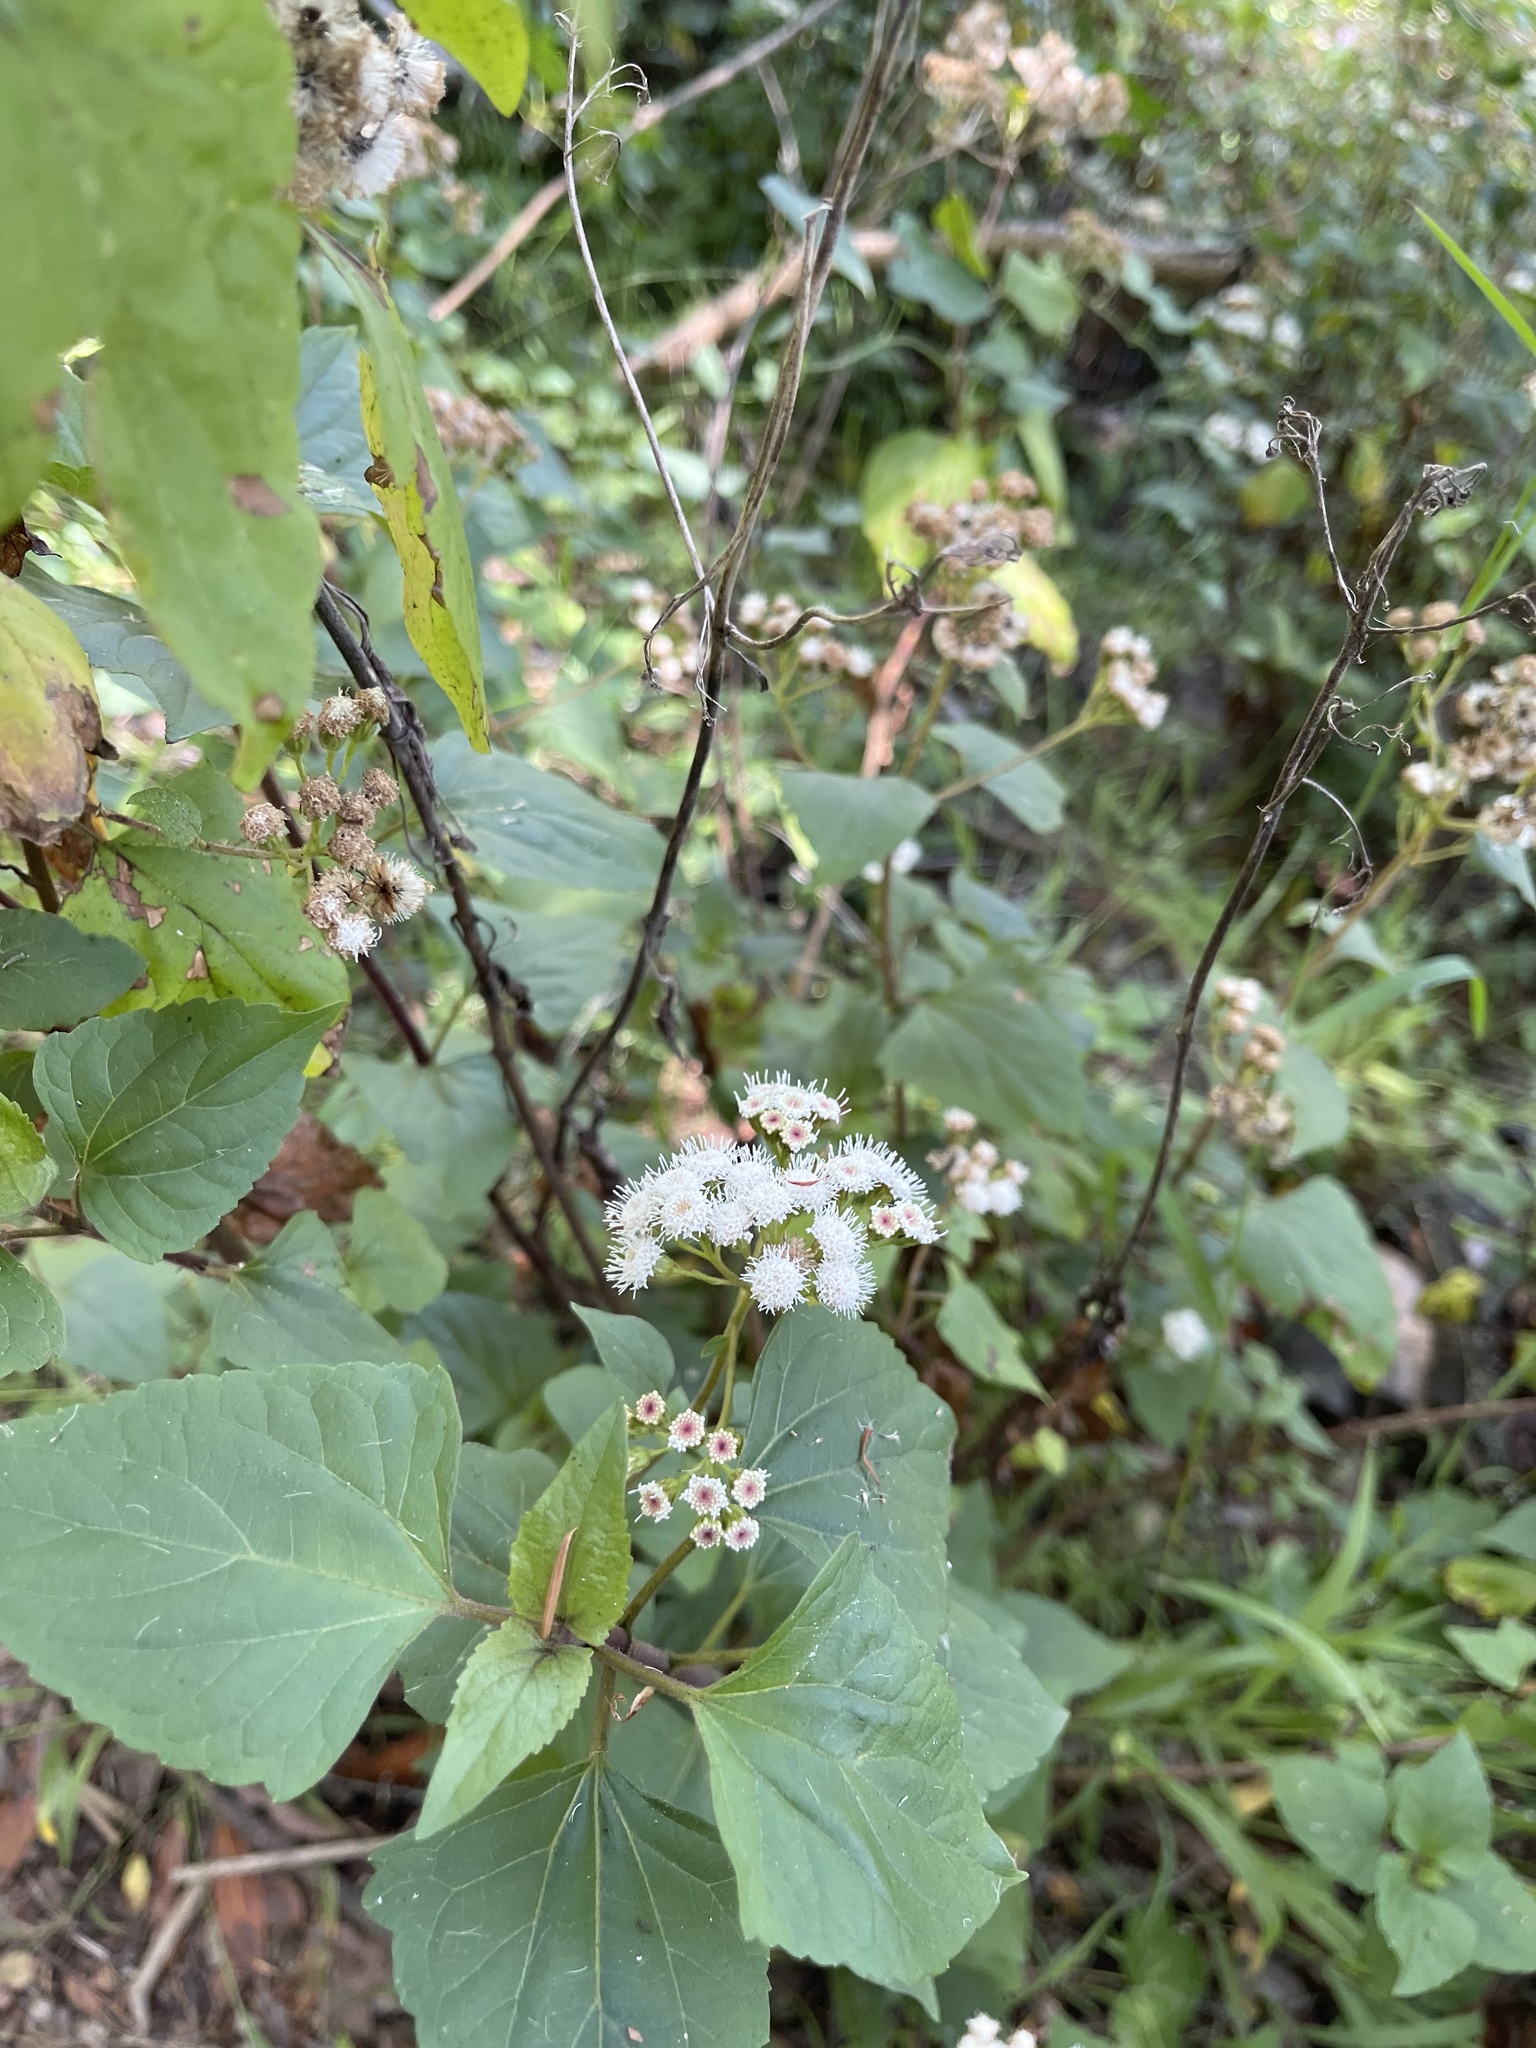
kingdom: Plantae
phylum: Tracheophyta
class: Magnoliopsida
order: Asterales
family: Asteraceae
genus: Ageratina
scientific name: Ageratina adenophora
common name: Sticky snakeroot
